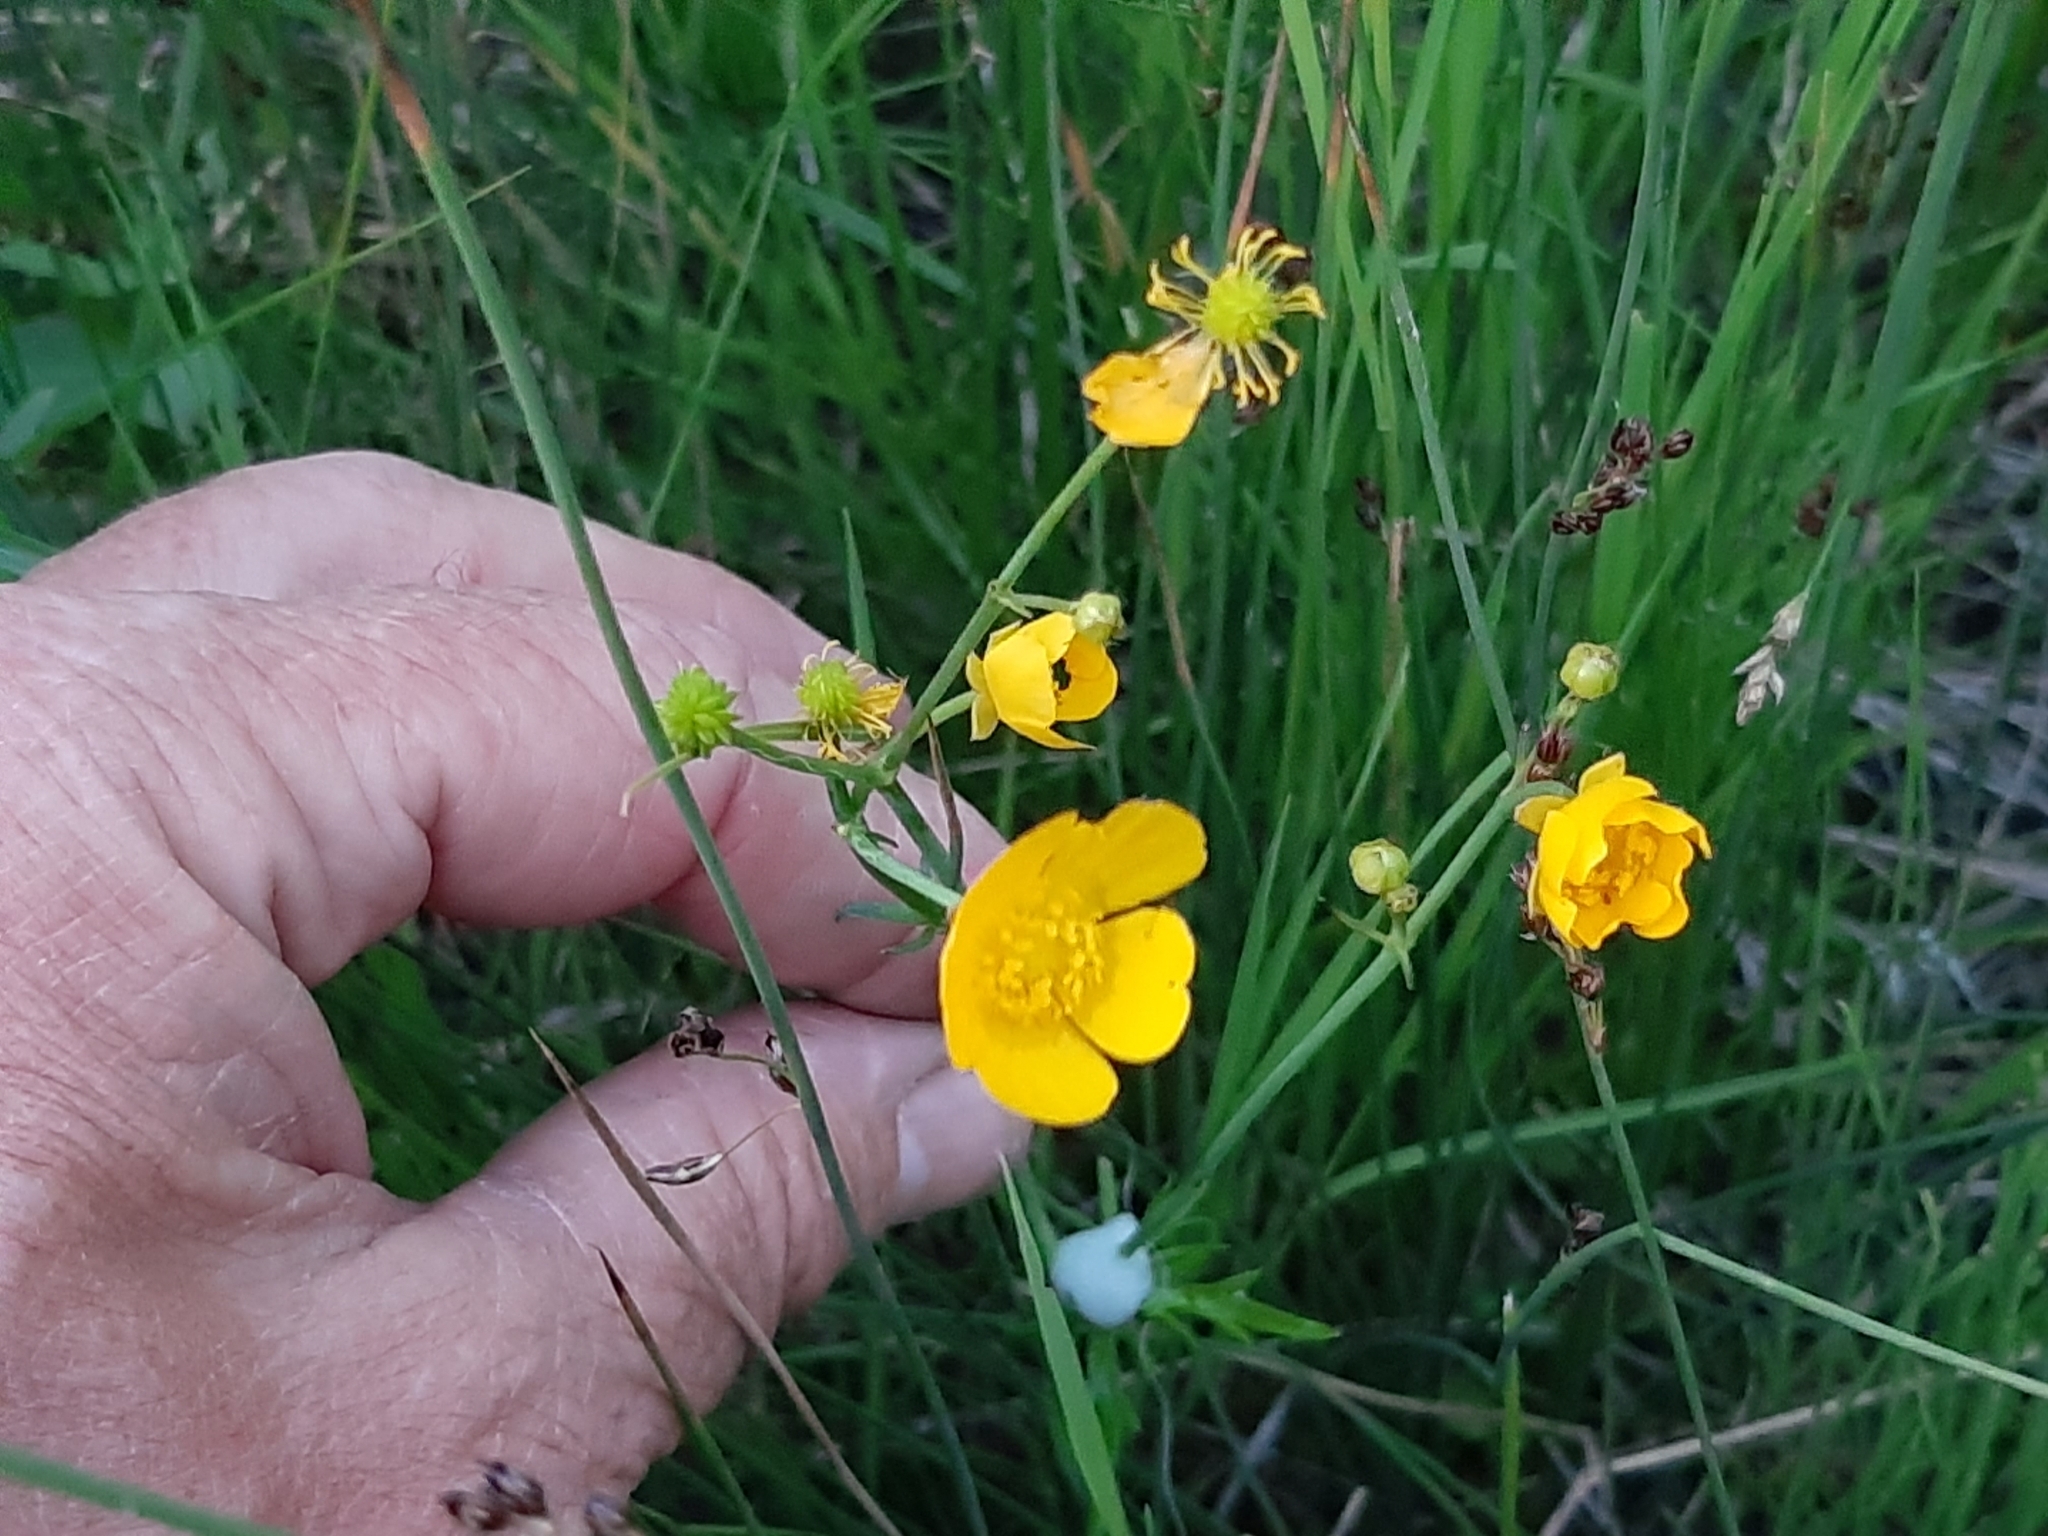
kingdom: Plantae
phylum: Tracheophyta
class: Magnoliopsida
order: Ranunculales
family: Ranunculaceae
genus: Ranunculus
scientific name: Ranunculus acris
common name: Meadow buttercup
